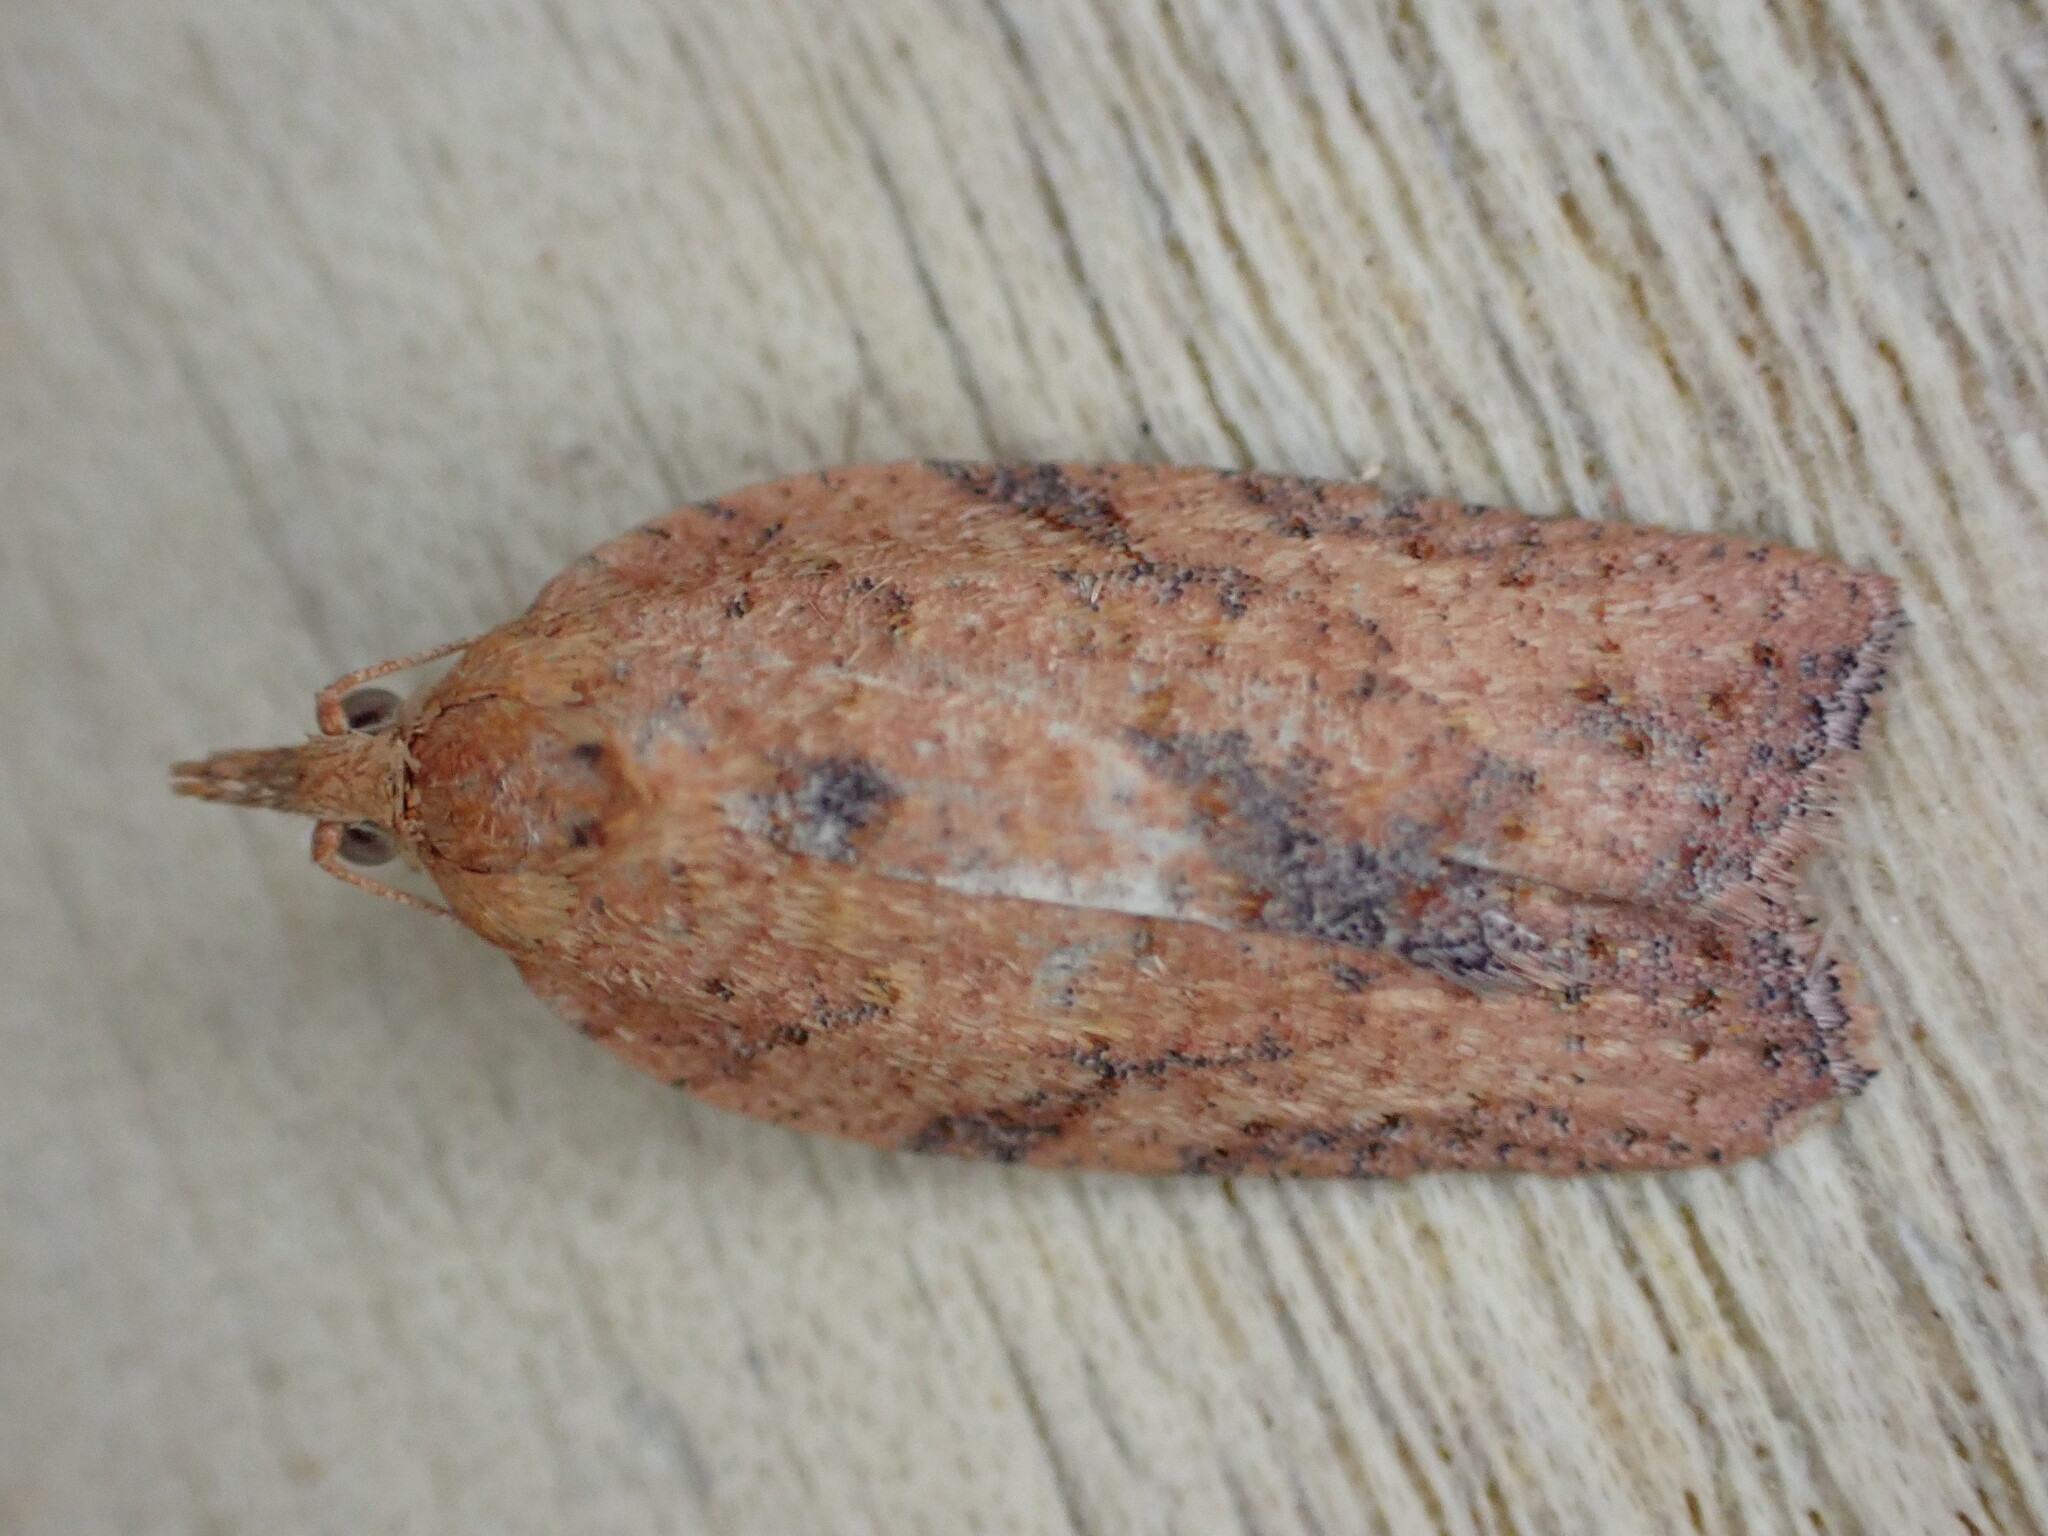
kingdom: Animalia
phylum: Arthropoda
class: Insecta
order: Lepidoptera
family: Tortricidae
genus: Epiphyas
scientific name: Epiphyas postvittana
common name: Light brown apple moth
